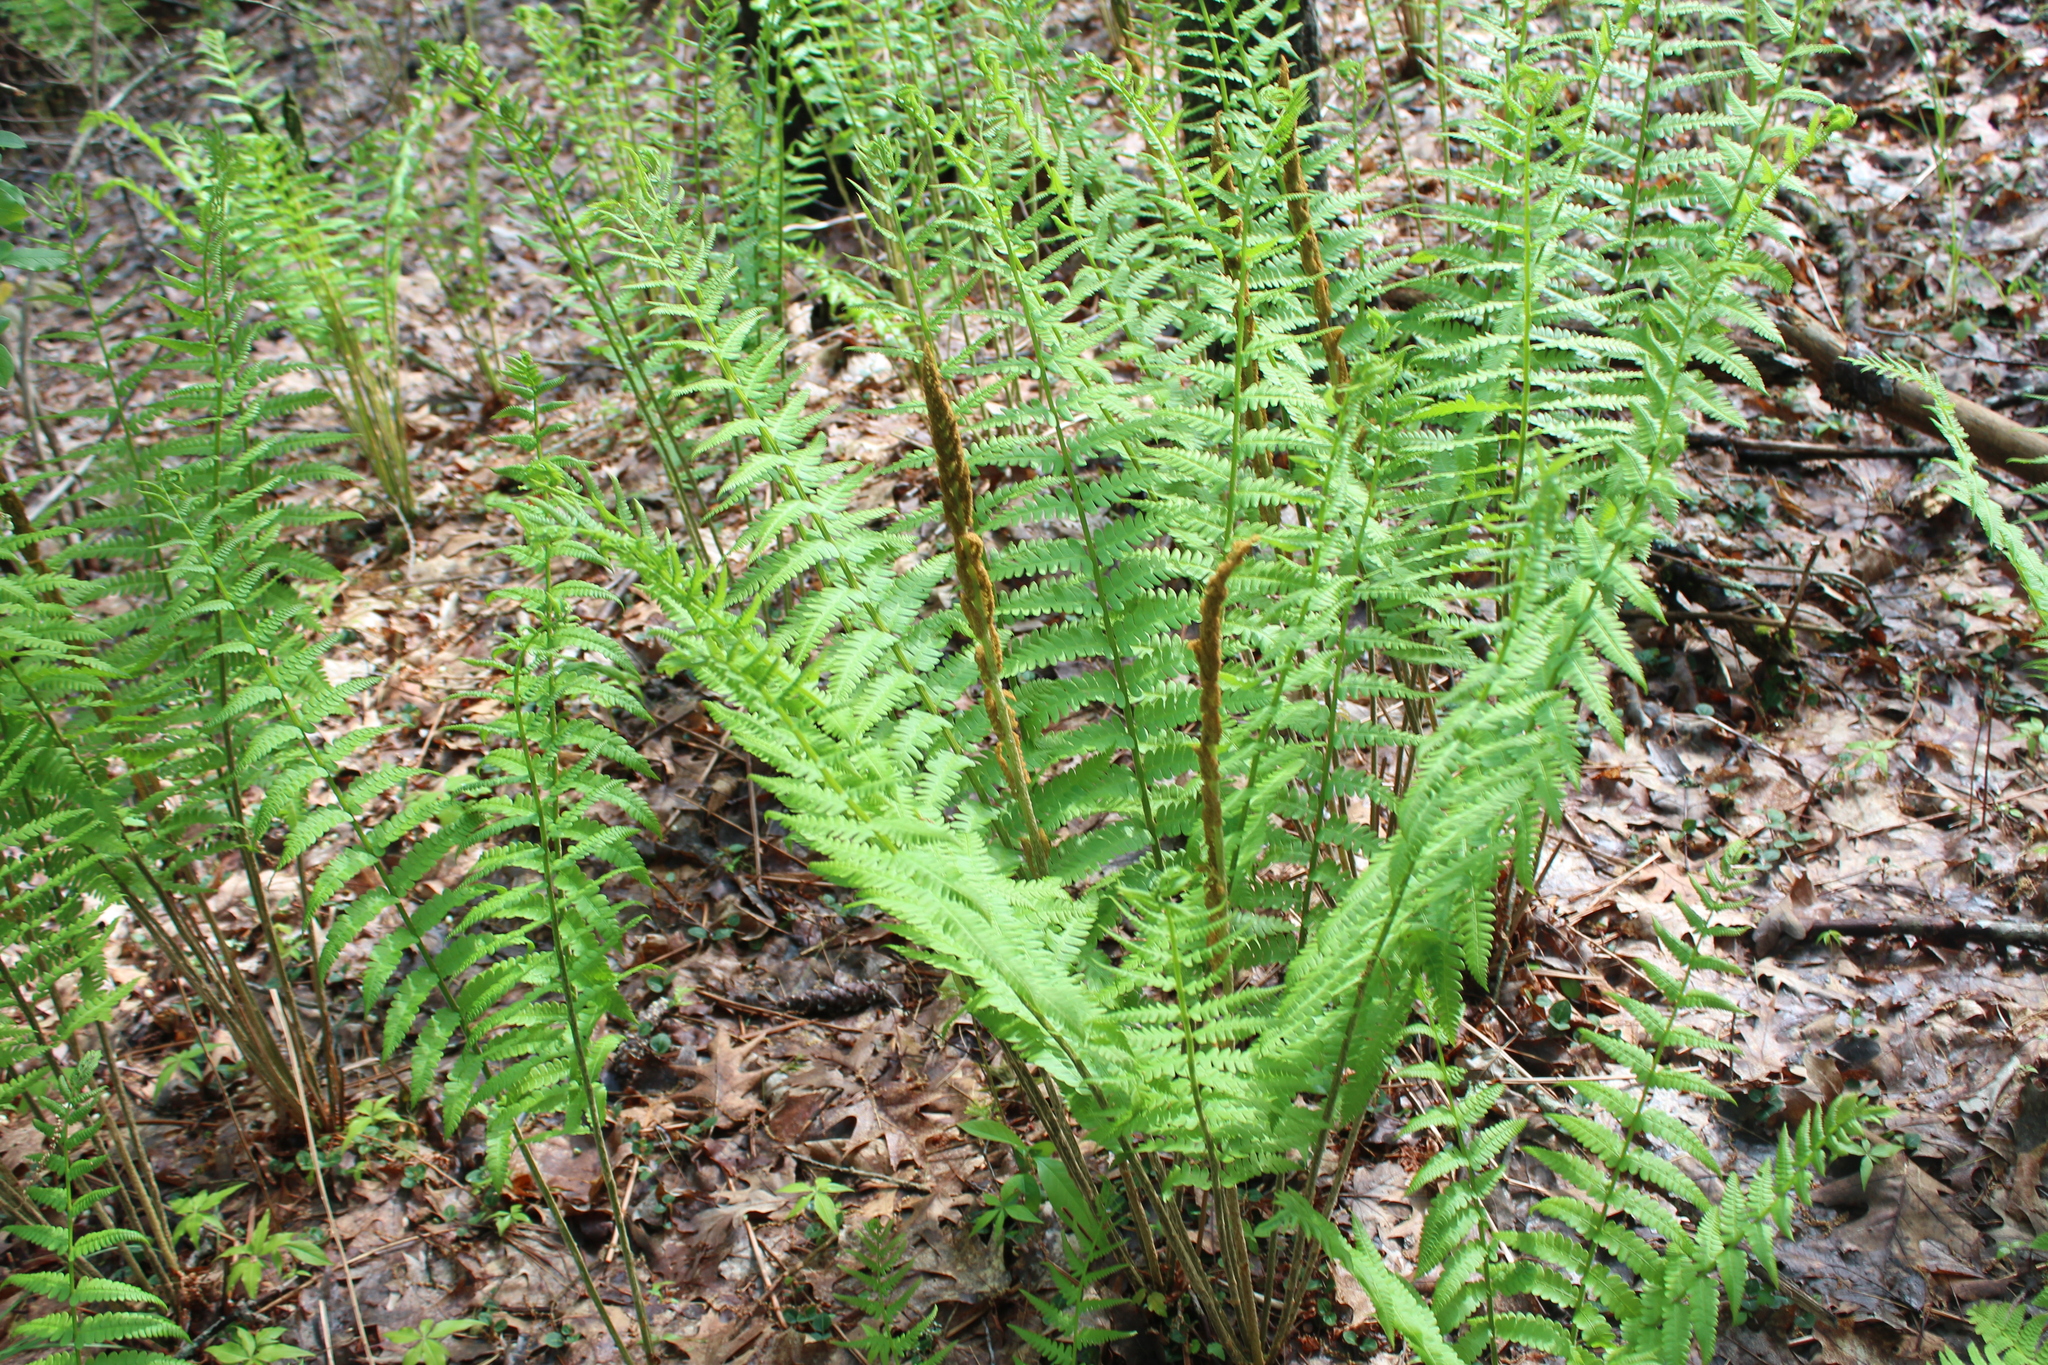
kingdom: Plantae
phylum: Tracheophyta
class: Polypodiopsida
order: Osmundales
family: Osmundaceae
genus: Osmundastrum
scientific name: Osmundastrum cinnamomeum
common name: Cinnamon fern
